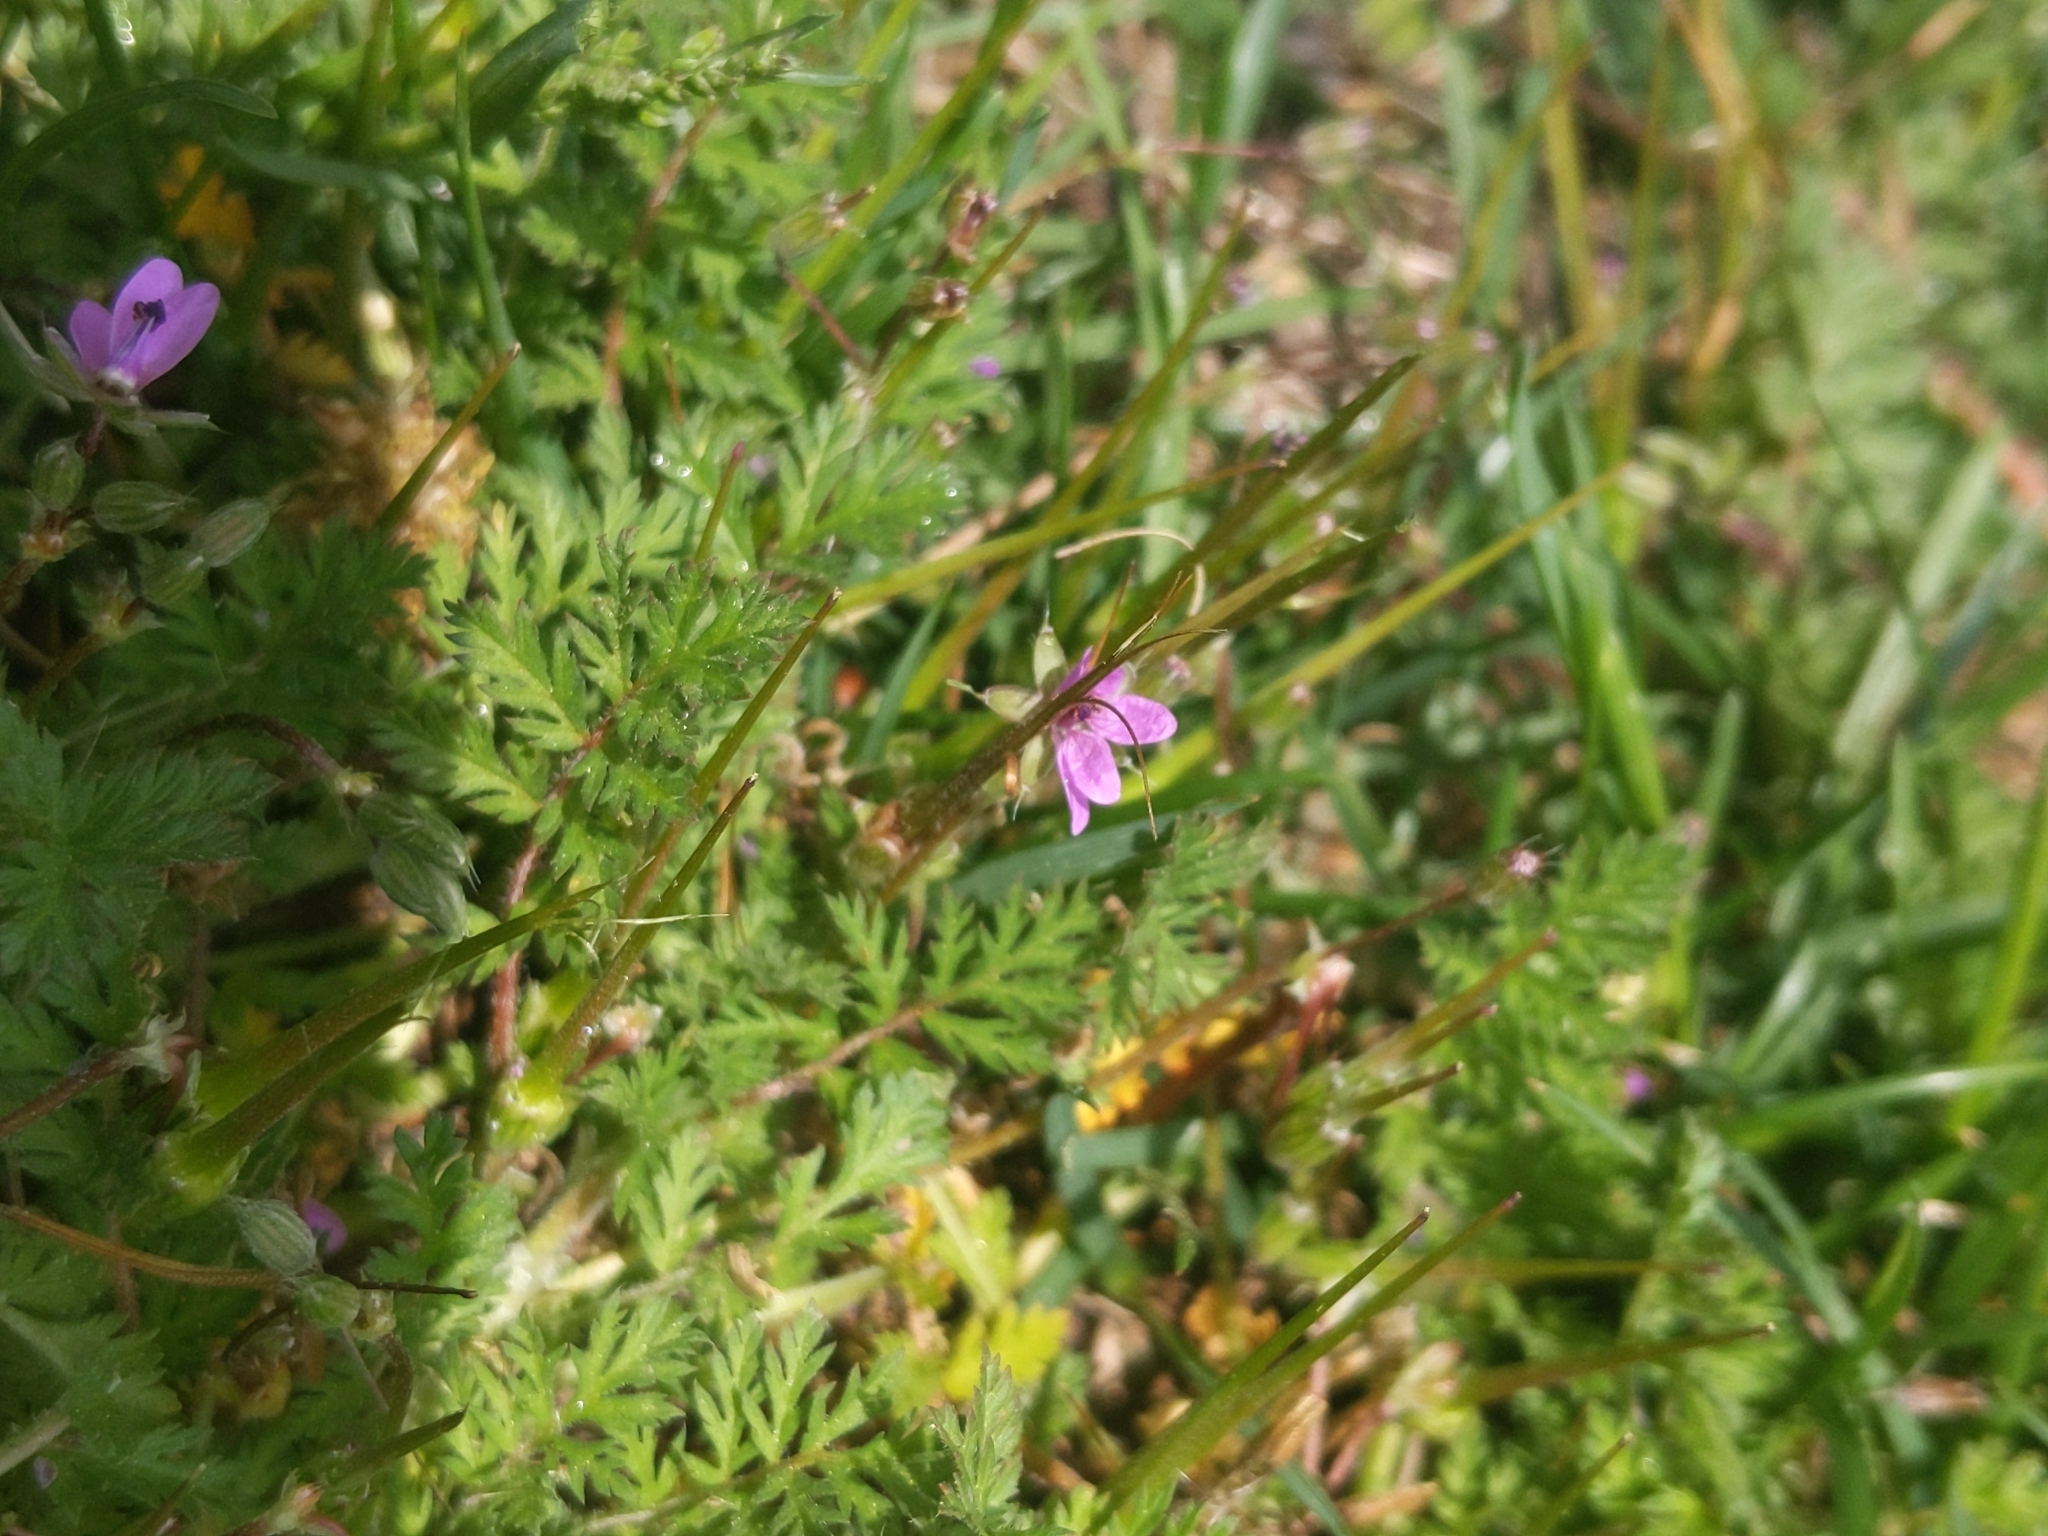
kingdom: Plantae
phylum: Tracheophyta
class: Magnoliopsida
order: Geraniales
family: Geraniaceae
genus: Erodium
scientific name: Erodium cicutarium
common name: Common stork's-bill
